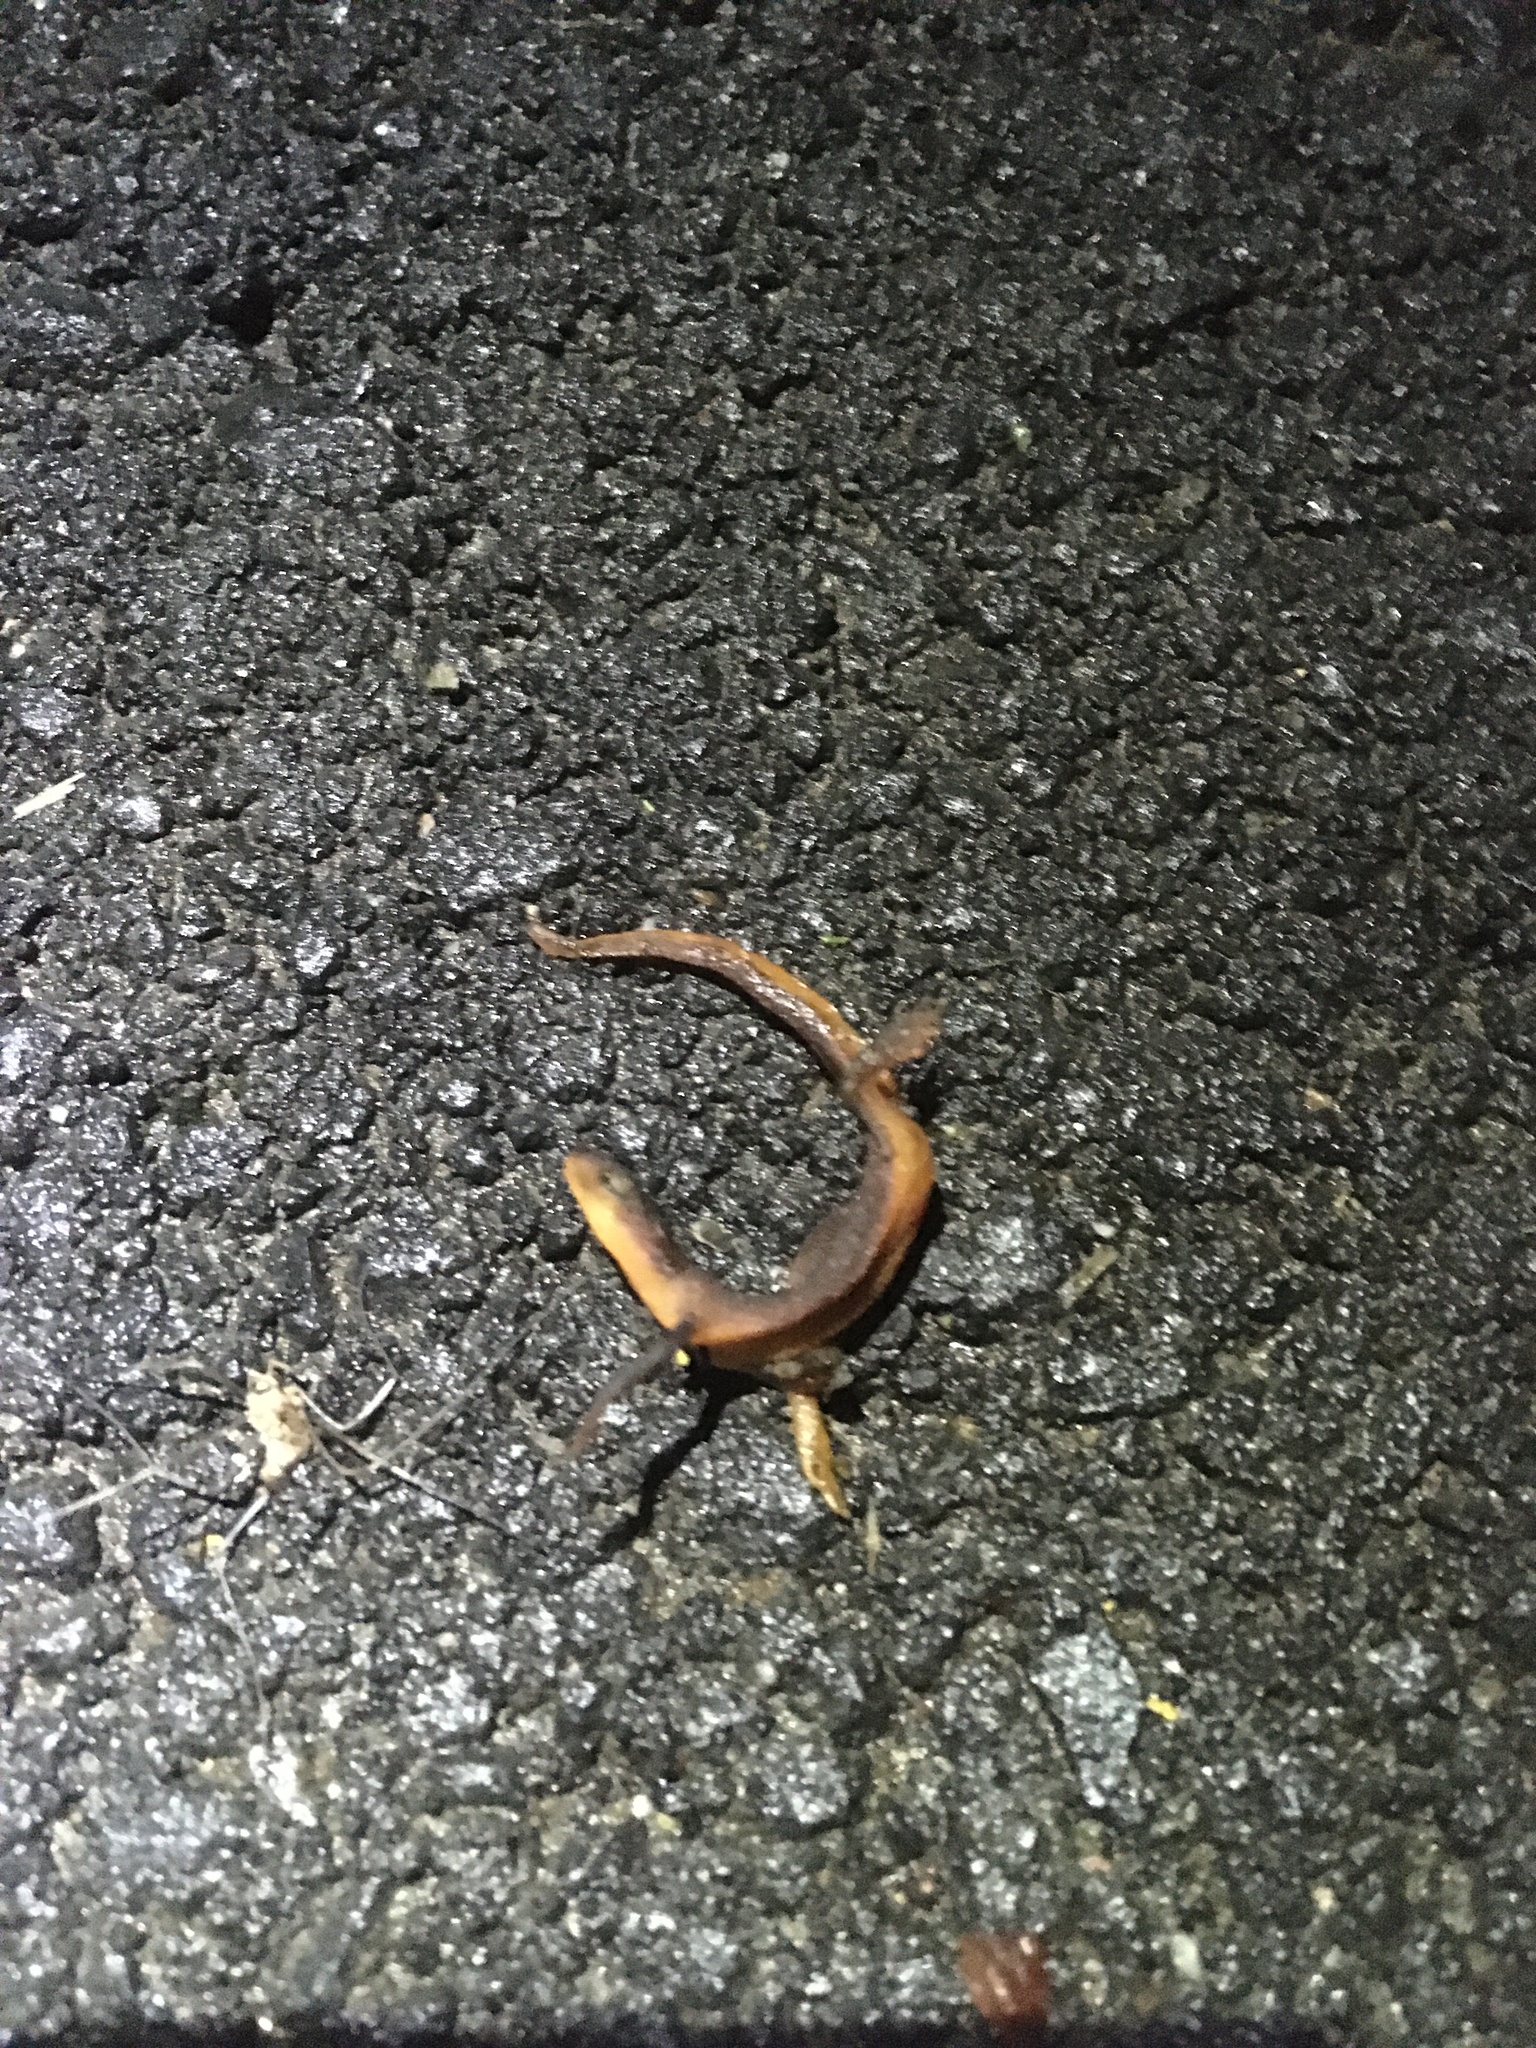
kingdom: Animalia
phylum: Chordata
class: Amphibia
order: Caudata
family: Salamandridae
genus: Taricha
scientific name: Taricha torosa
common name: California newt
